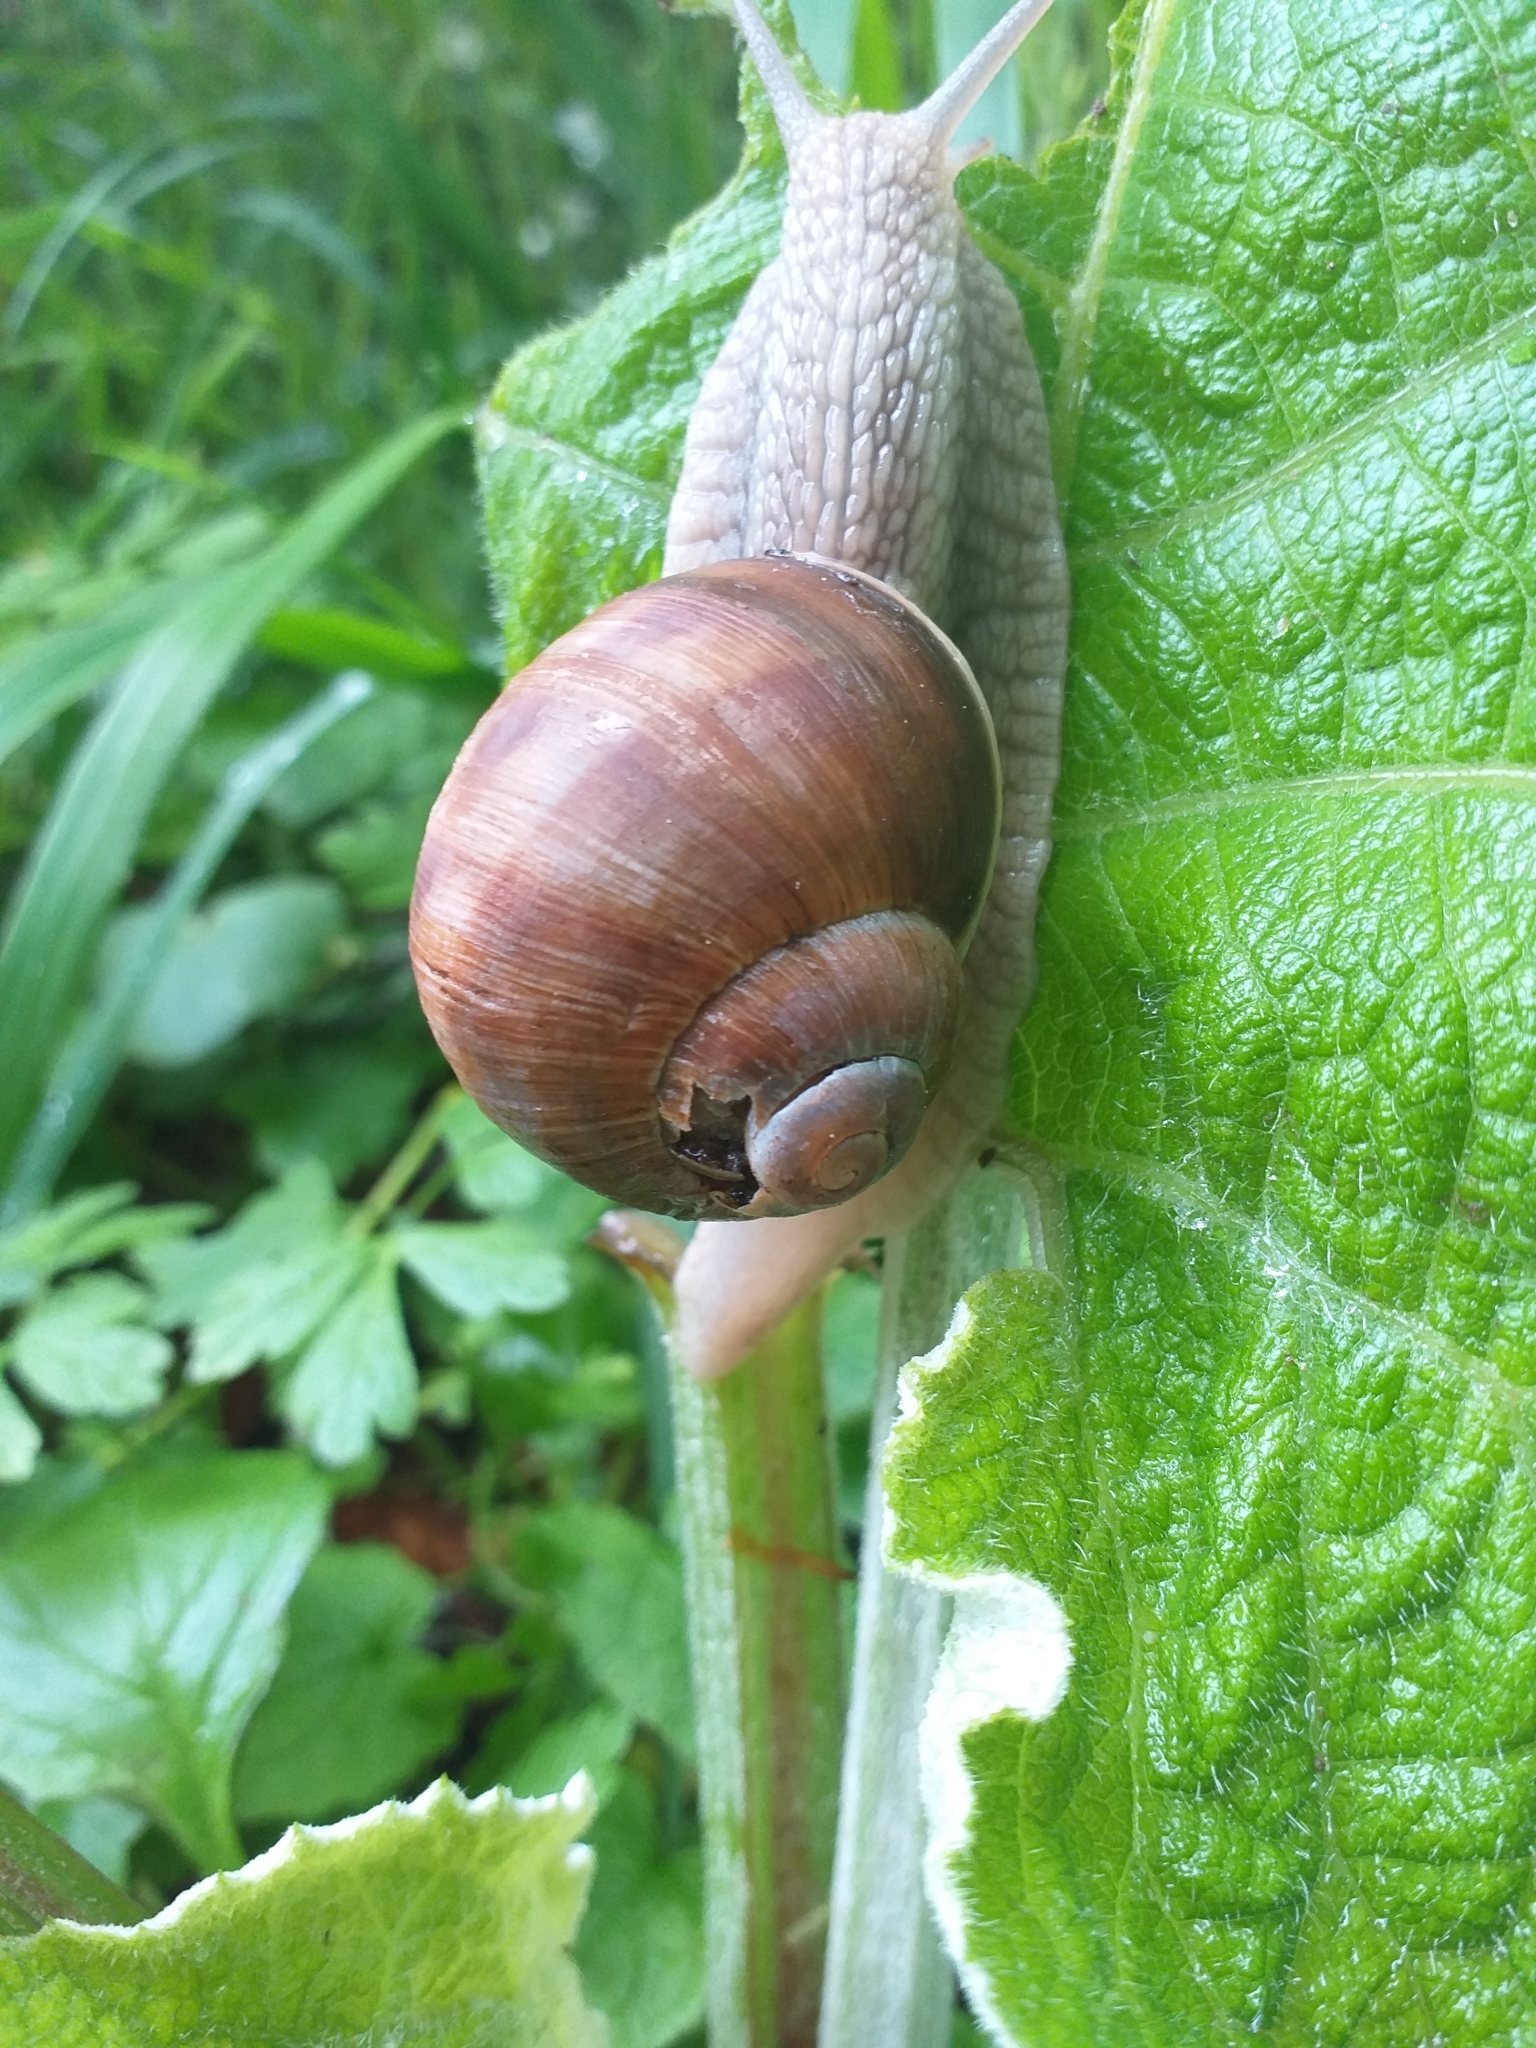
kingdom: Animalia
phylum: Mollusca
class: Gastropoda
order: Stylommatophora
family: Helicidae
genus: Helix
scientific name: Helix pomatia
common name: Roman snail
